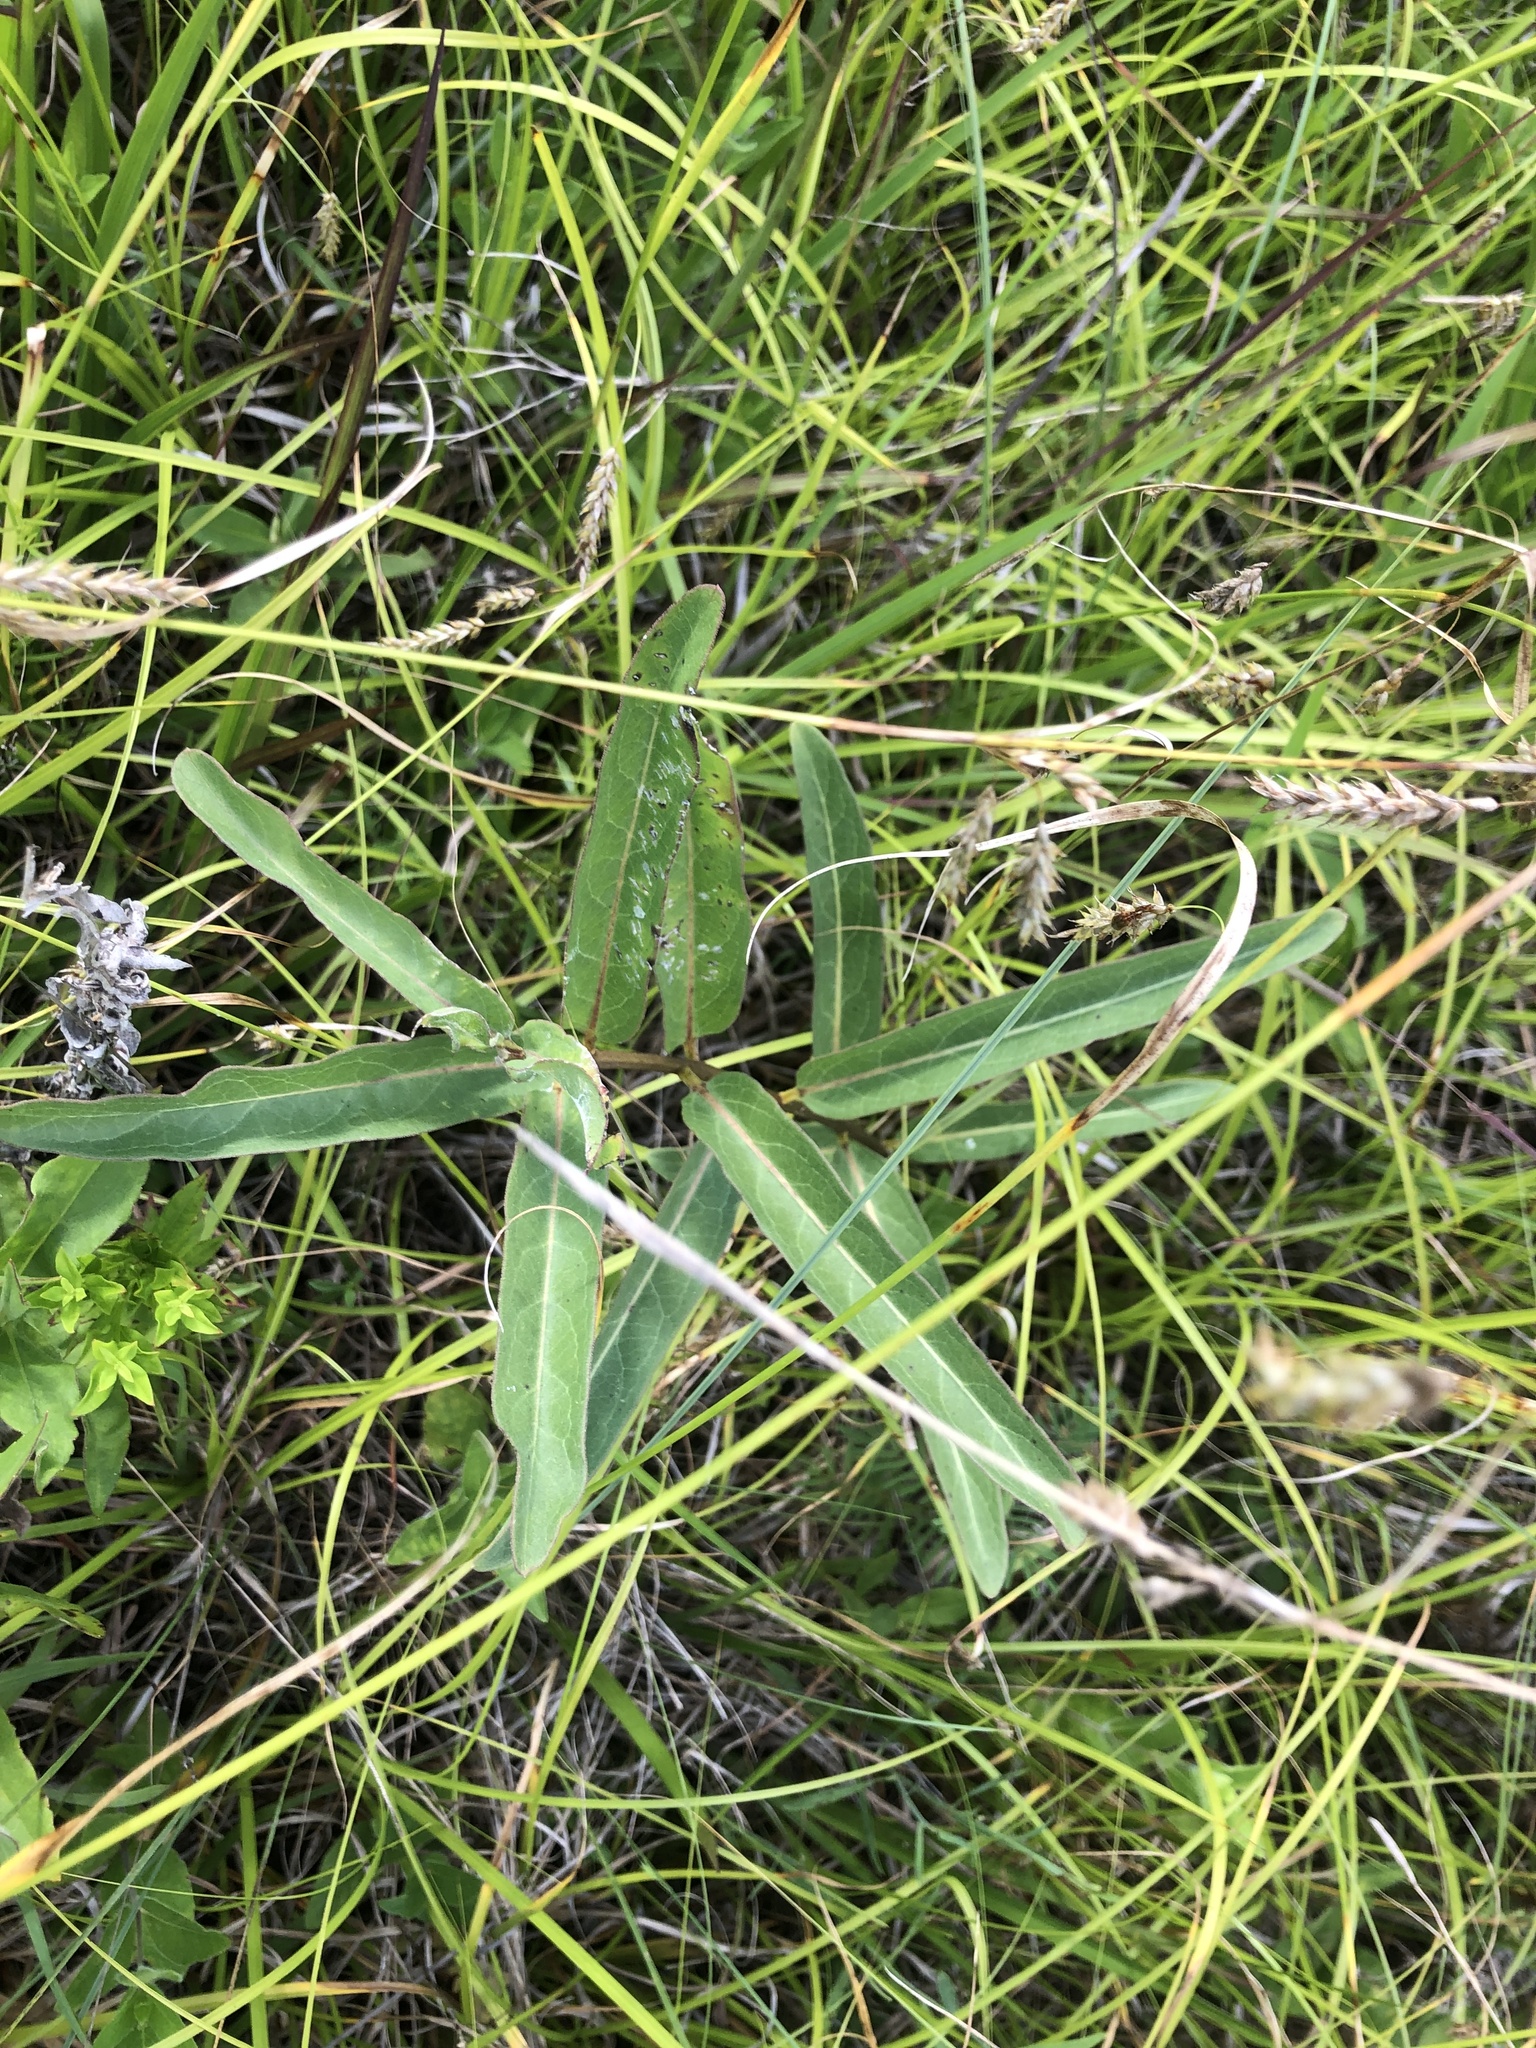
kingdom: Plantae
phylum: Tracheophyta
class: Magnoliopsida
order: Gentianales
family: Apocynaceae
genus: Asclepias
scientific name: Asclepias viridis
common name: Antelope-horns
